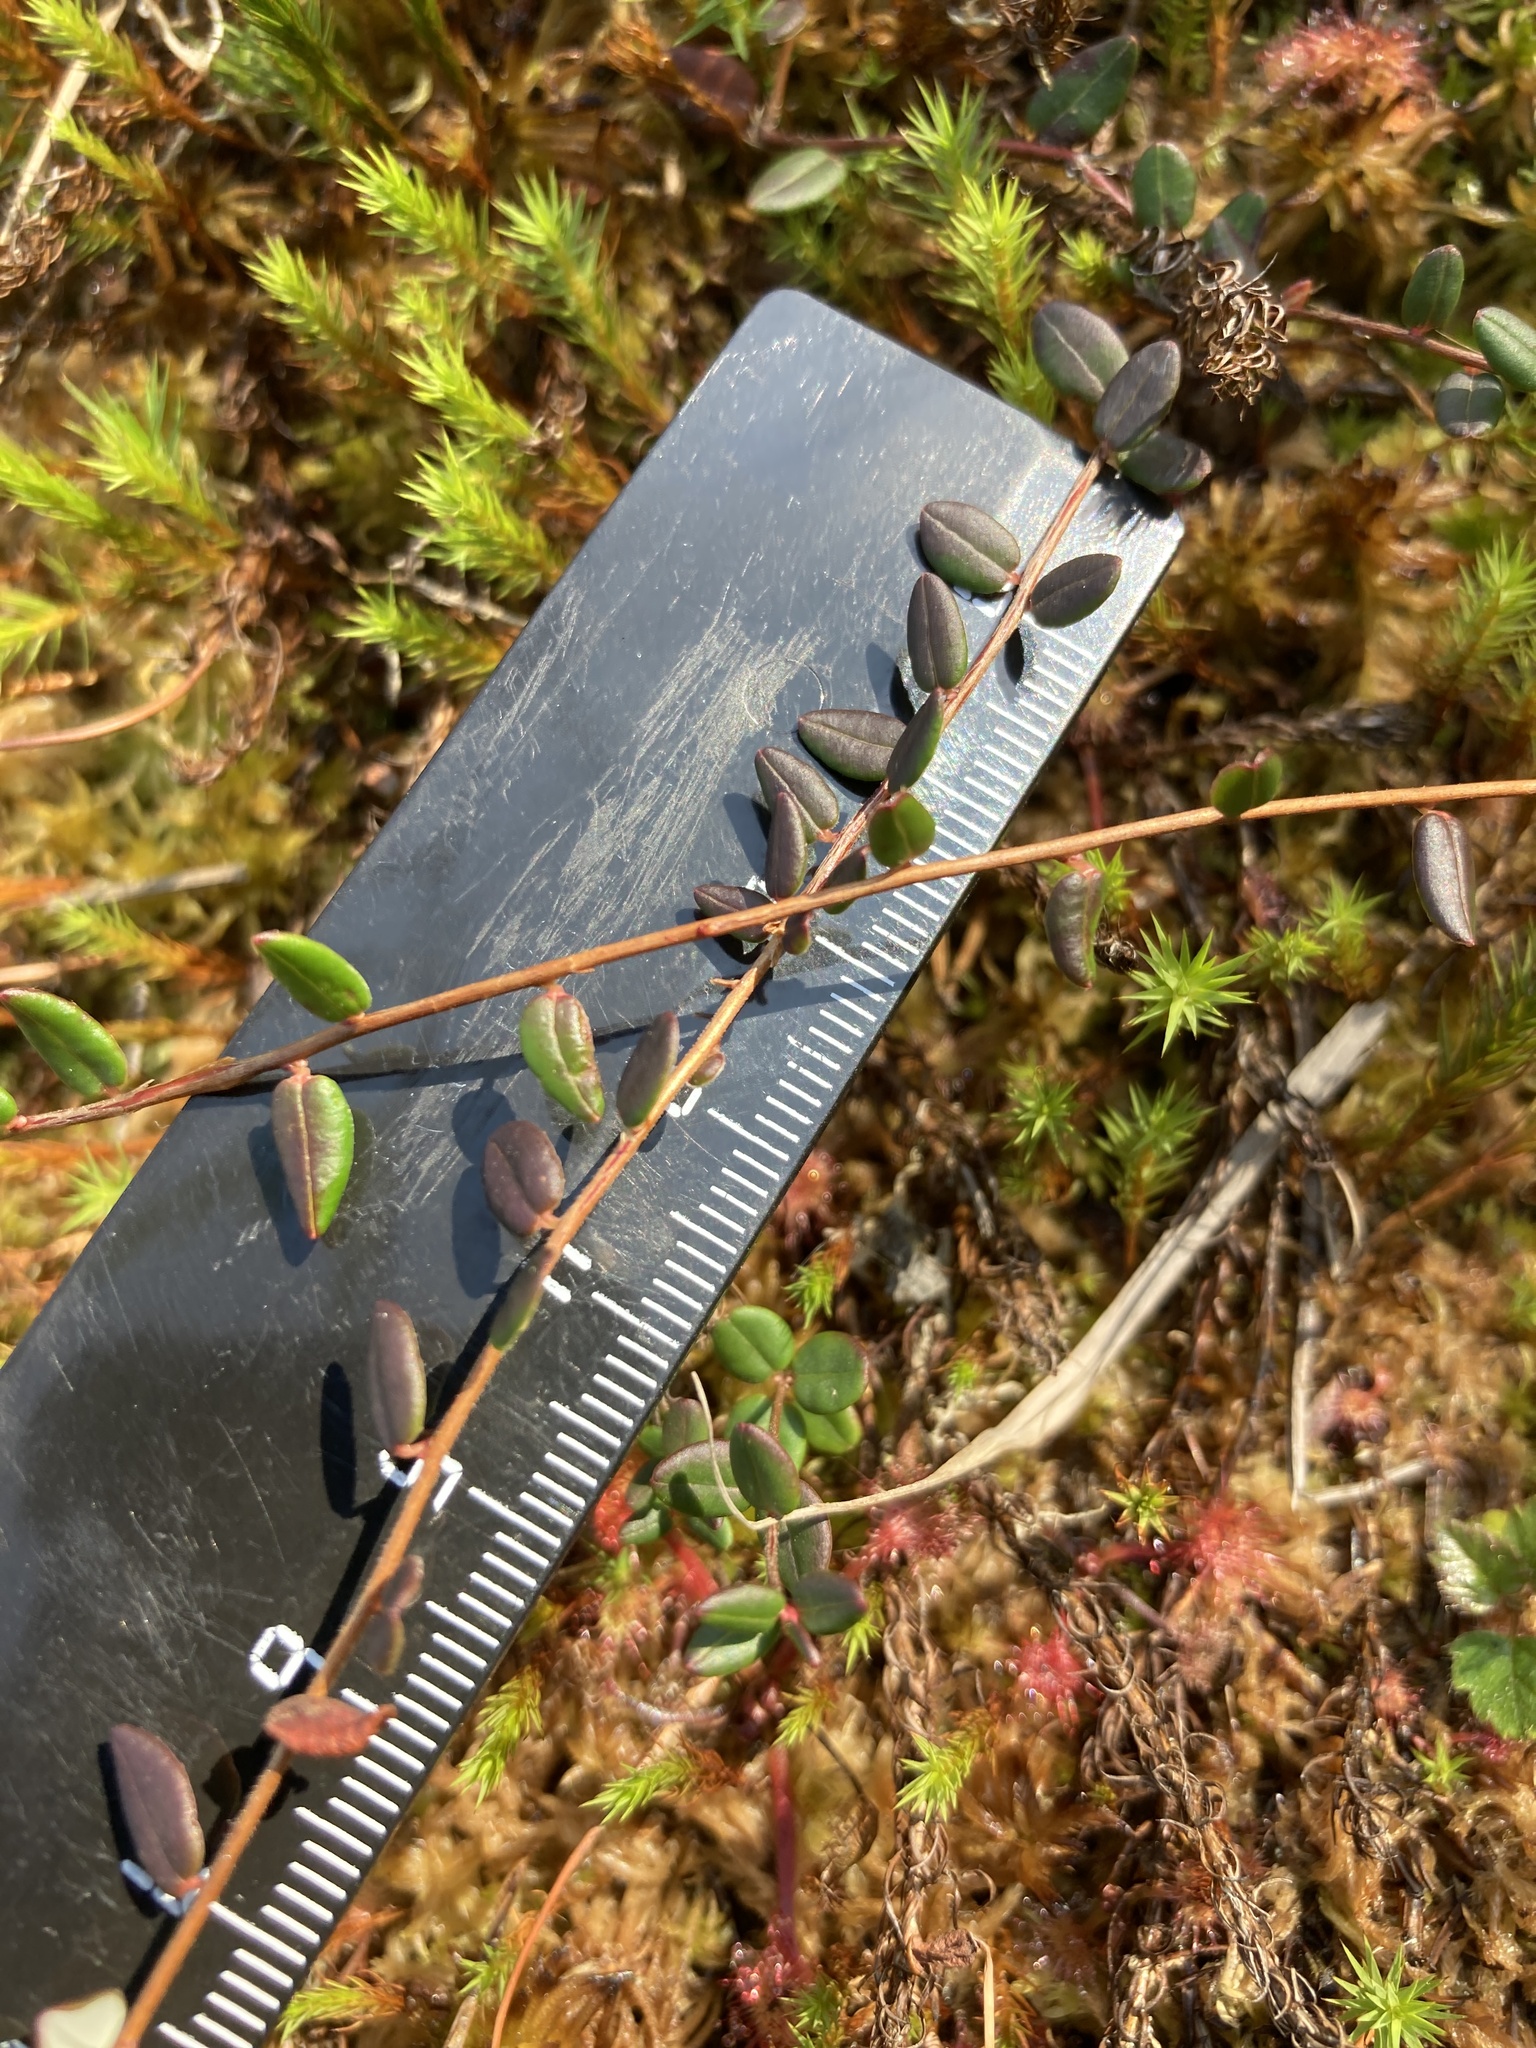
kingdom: Plantae
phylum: Tracheophyta
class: Magnoliopsida
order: Ericales
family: Ericaceae
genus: Vaccinium
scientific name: Vaccinium oxycoccos
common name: Cranberry
